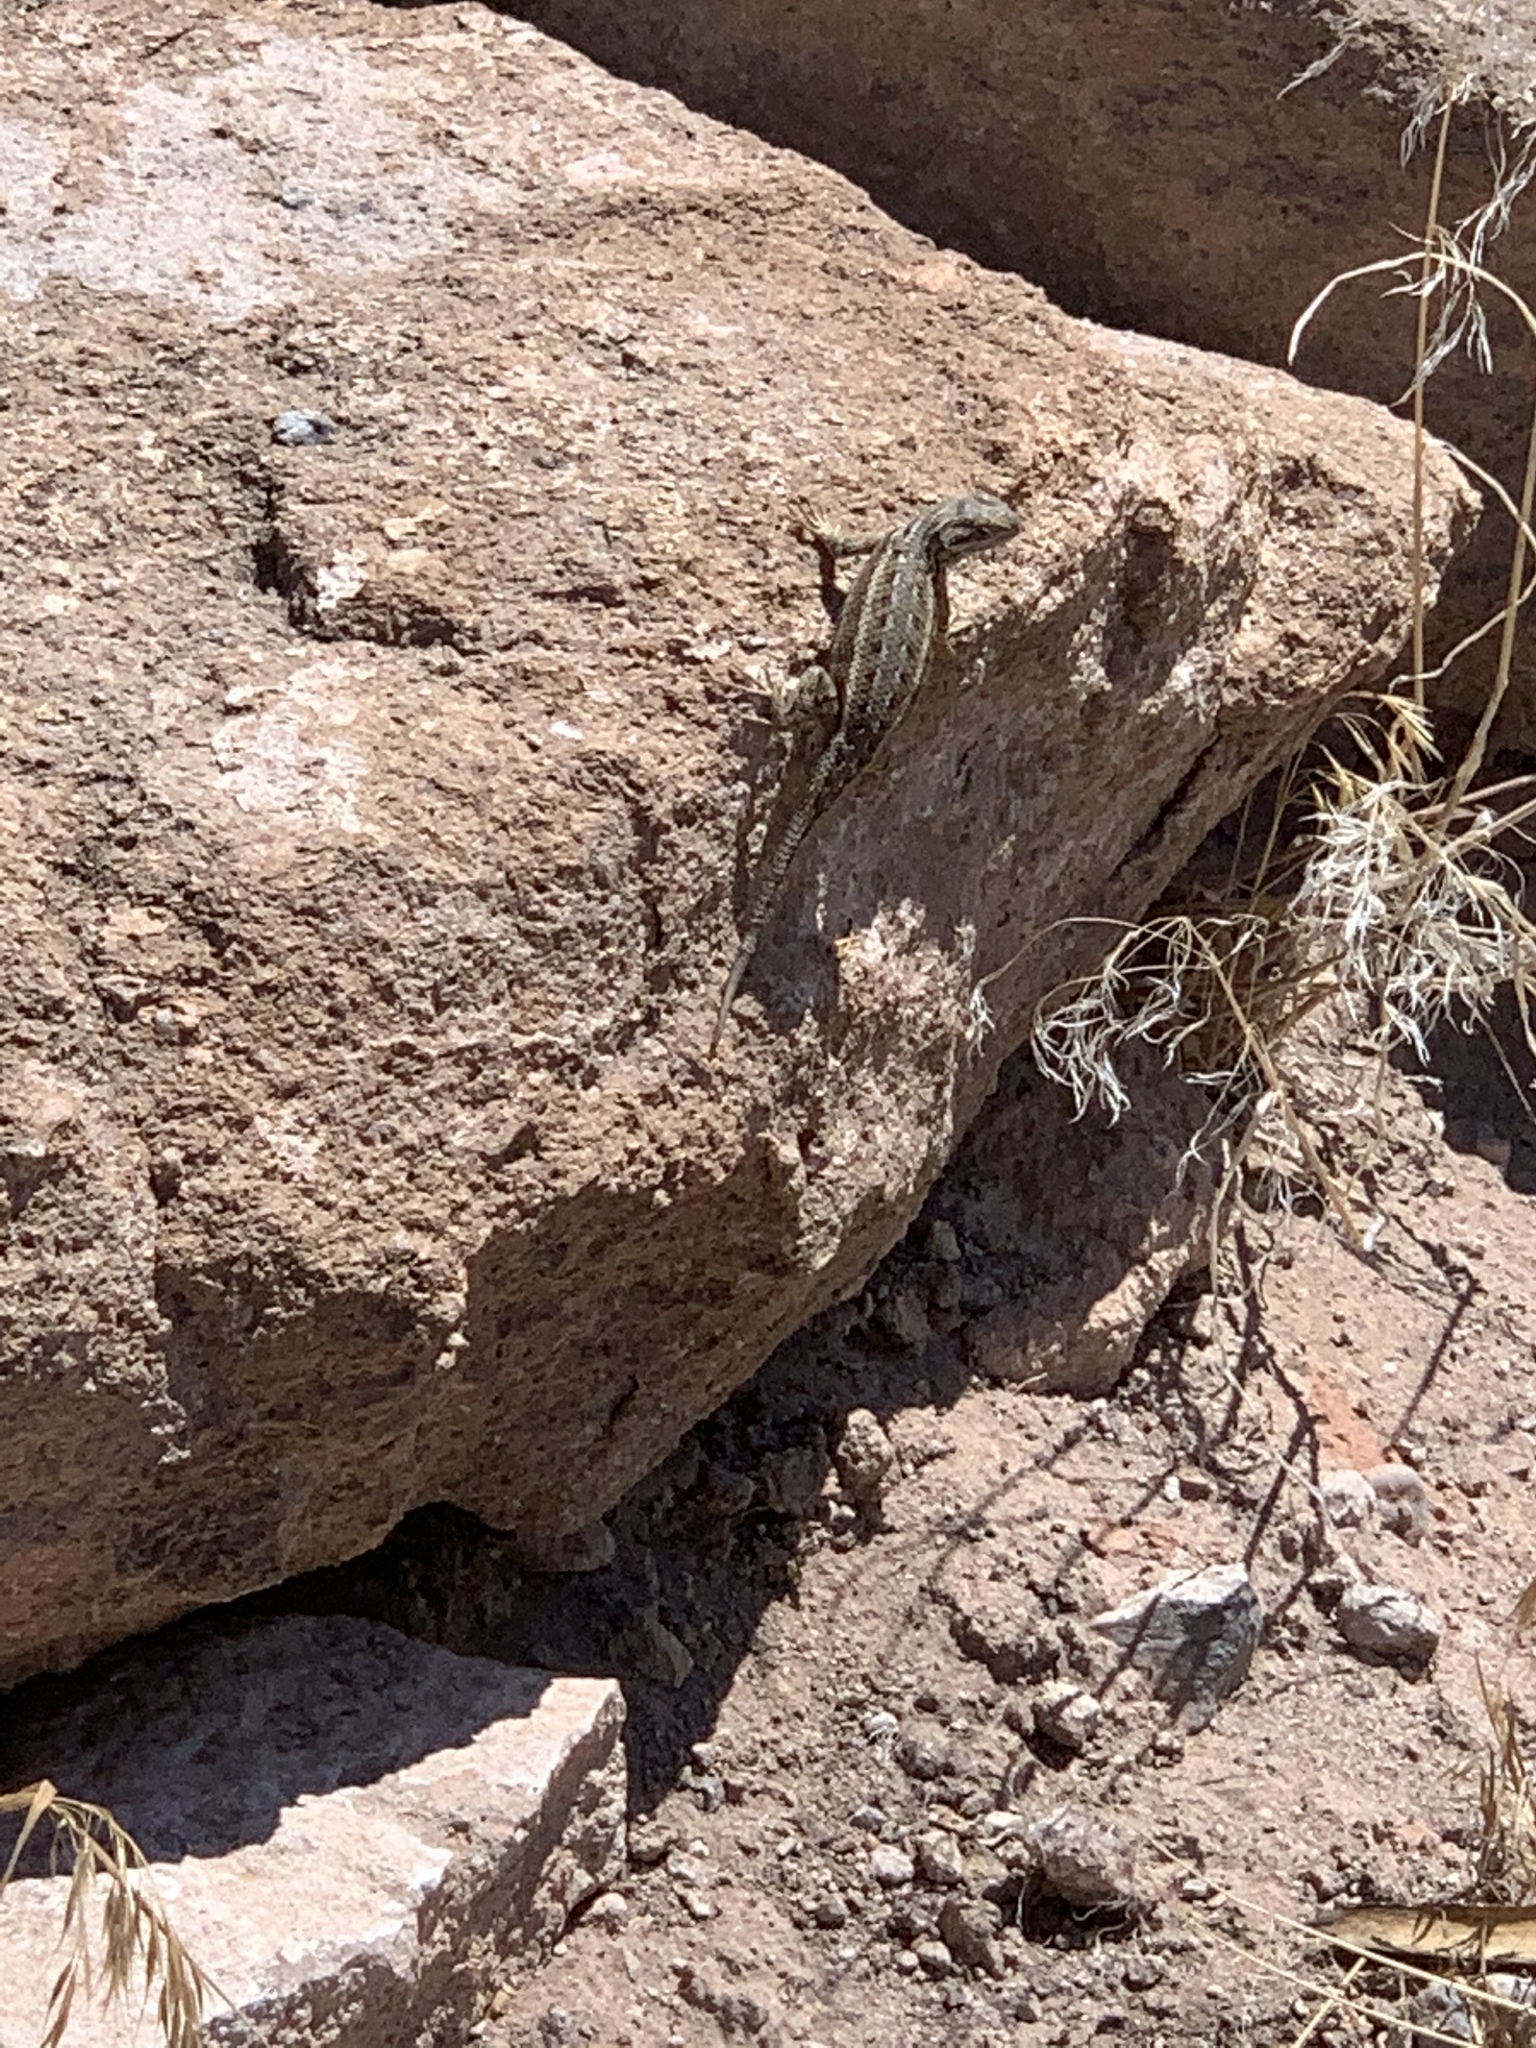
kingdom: Animalia
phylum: Chordata
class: Squamata
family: Phrynosomatidae
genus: Sceloporus
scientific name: Sceloporus cowlesi
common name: White sands prairie lizard
